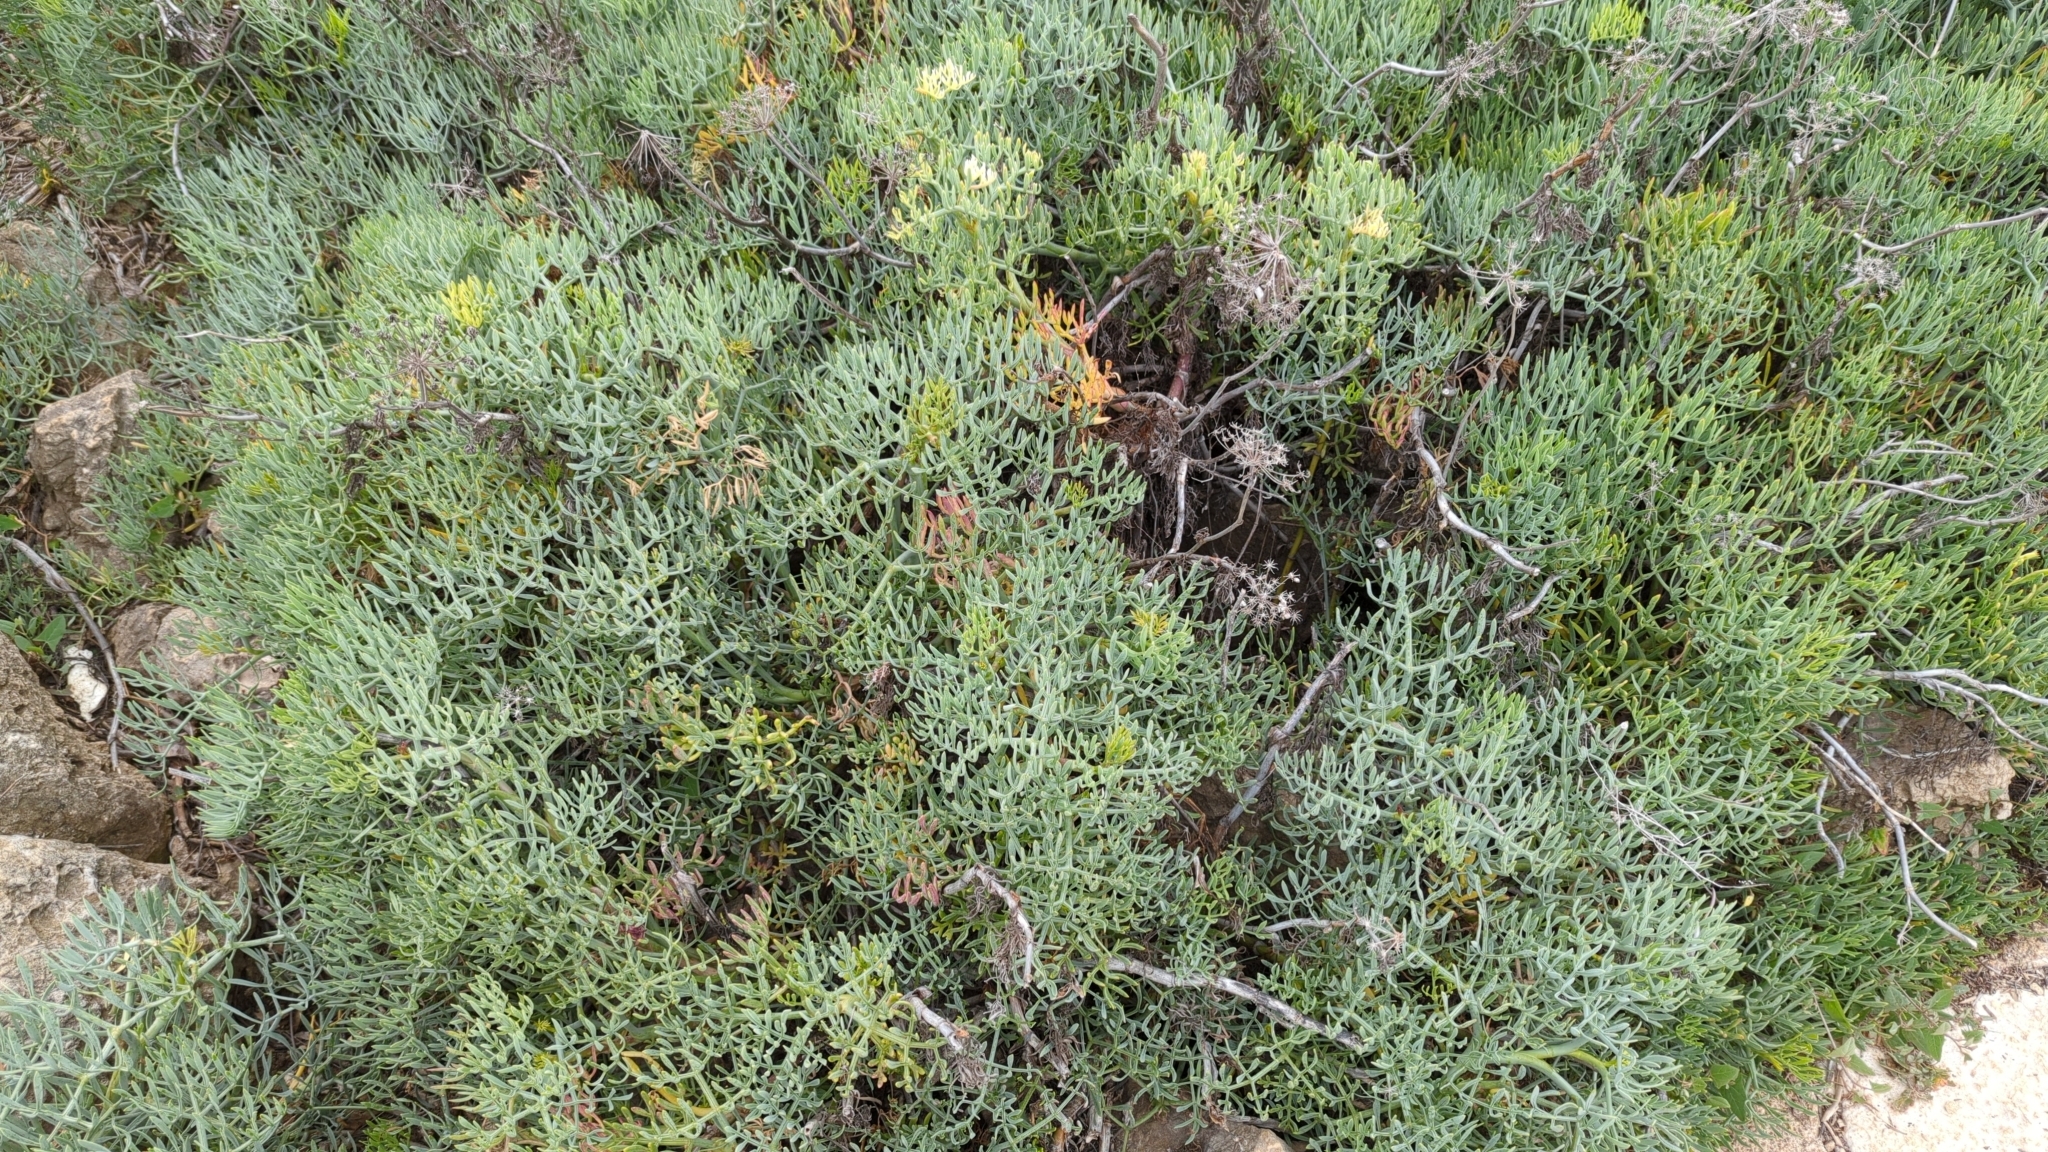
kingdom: Plantae
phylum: Tracheophyta
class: Magnoliopsida
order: Apiales
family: Apiaceae
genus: Crithmum
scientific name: Crithmum maritimum
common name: Rock samphire
